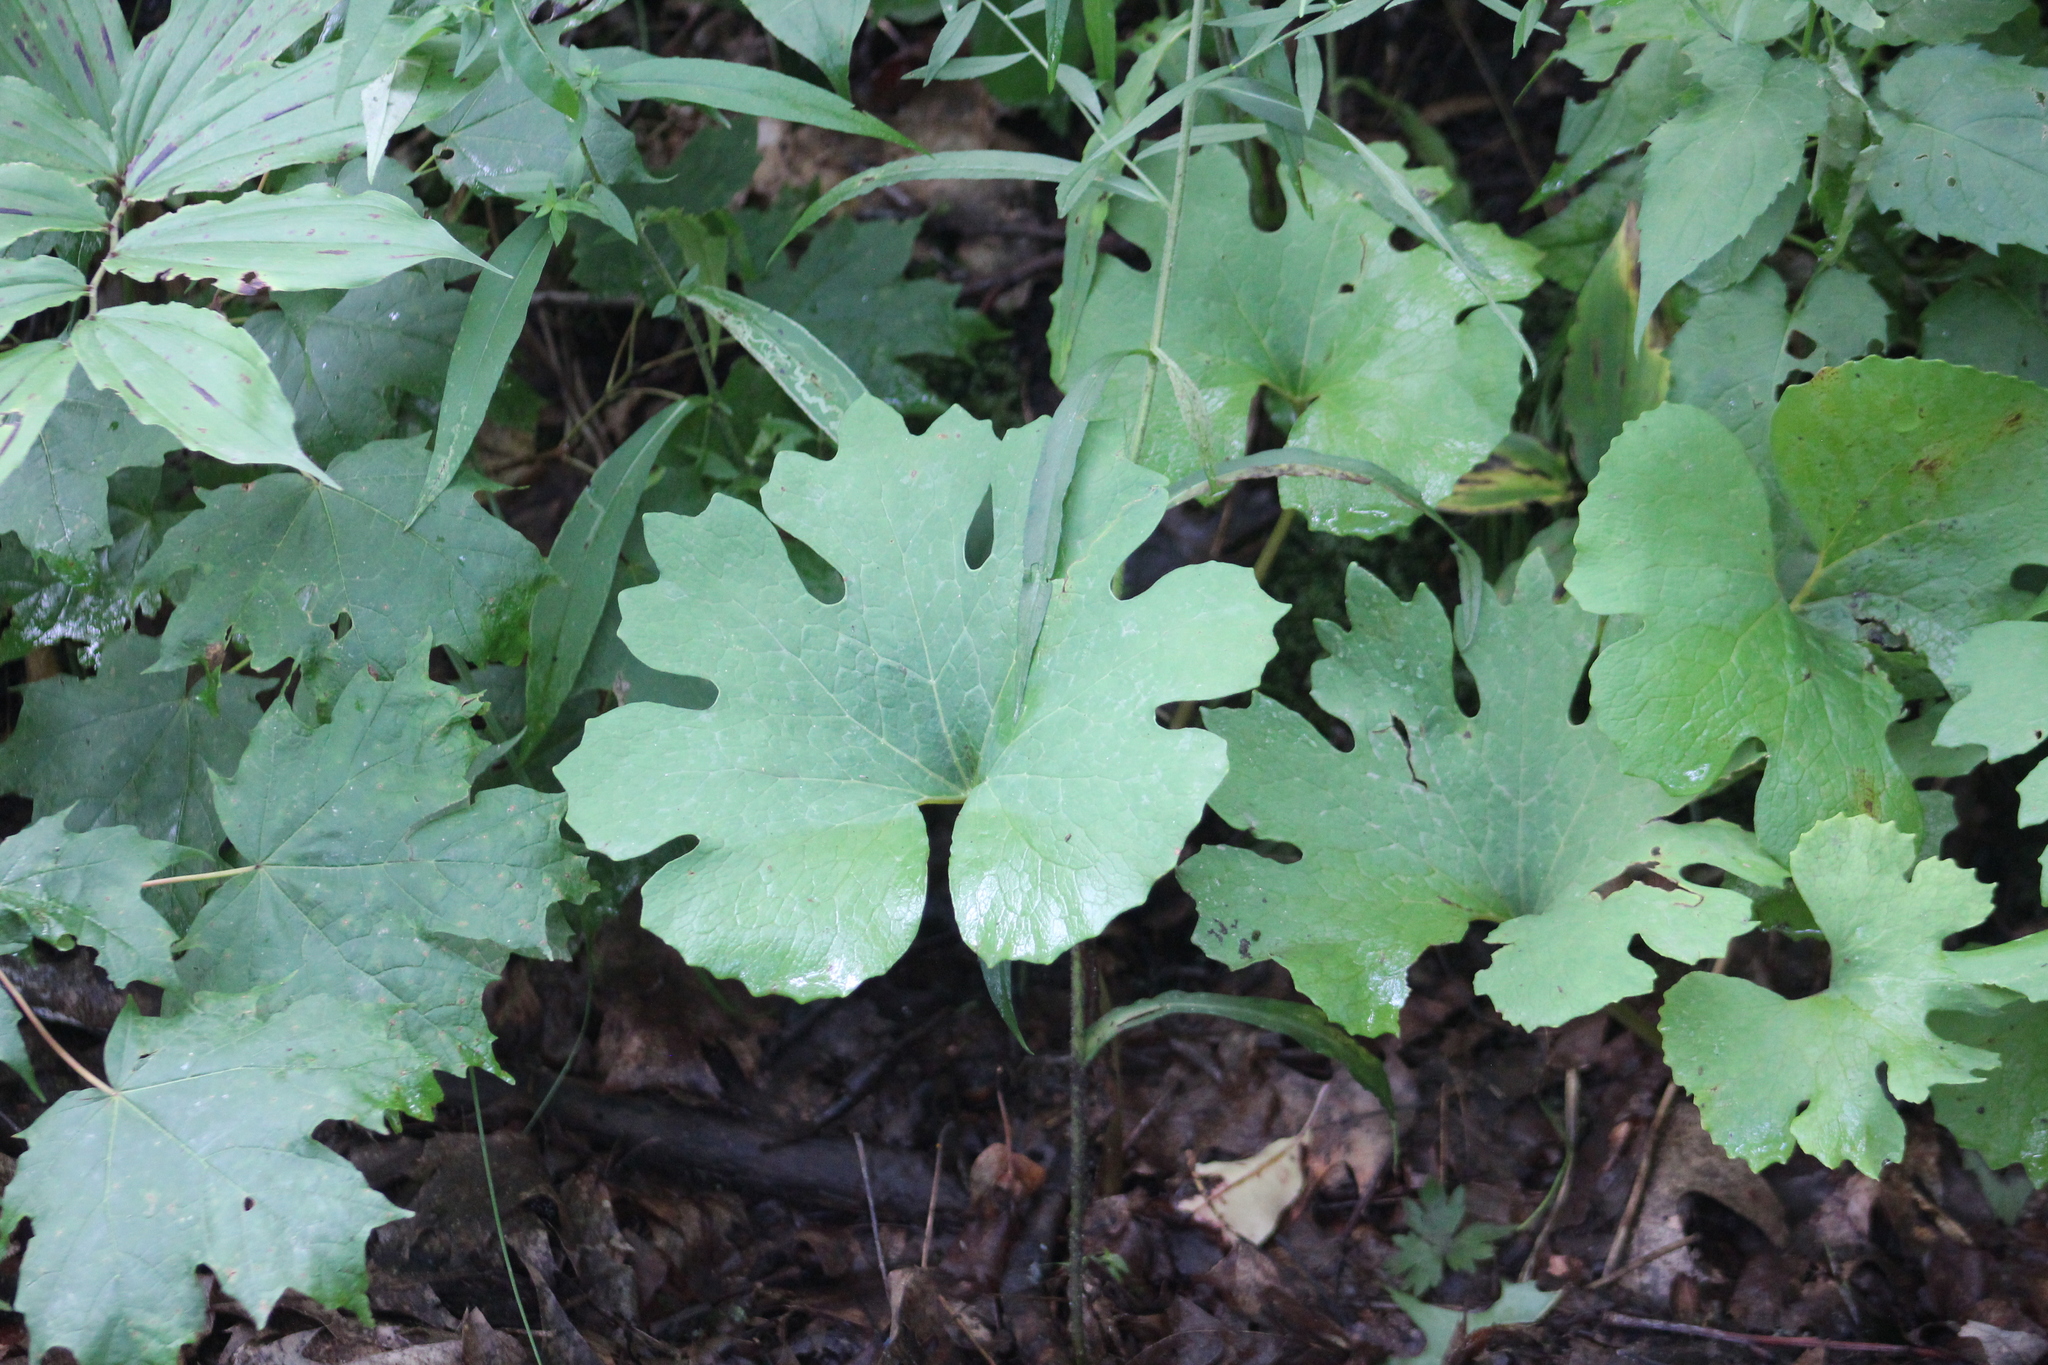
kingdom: Plantae
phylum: Tracheophyta
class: Magnoliopsida
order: Ranunculales
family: Papaveraceae
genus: Sanguinaria
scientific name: Sanguinaria canadensis
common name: Bloodroot
